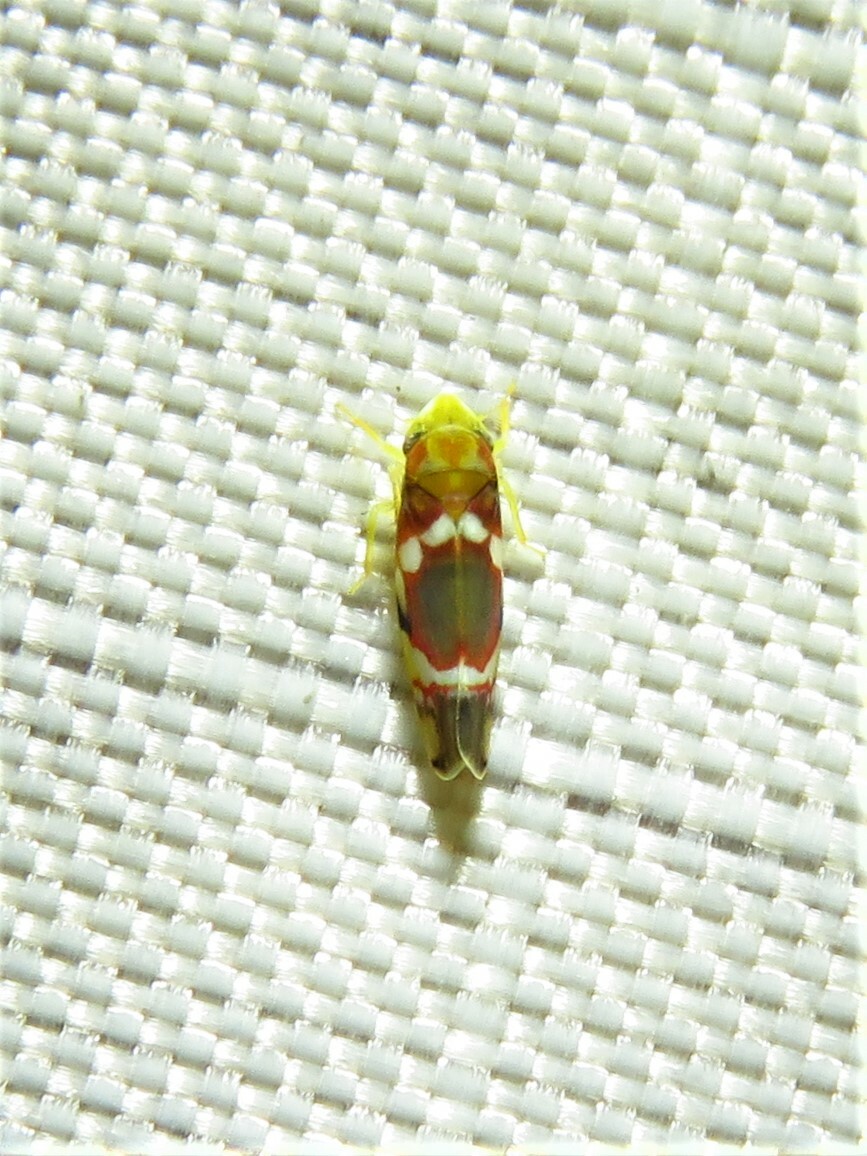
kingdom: Animalia
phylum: Arthropoda
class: Insecta
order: Hemiptera
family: Cicadellidae
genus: Erythroneura
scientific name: Erythroneura vitis
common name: Grapevine leafhopper
